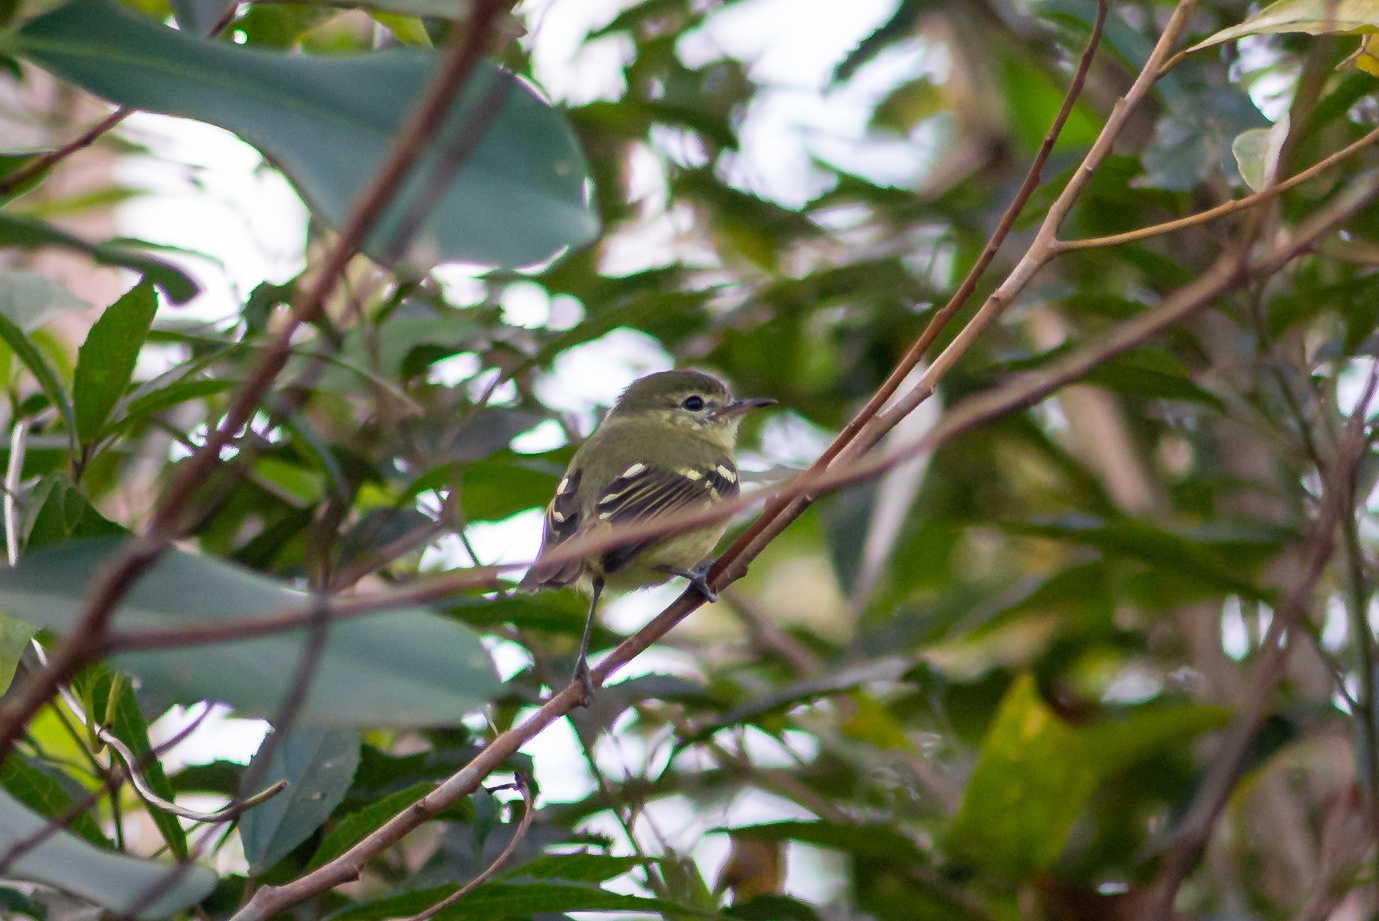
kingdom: Animalia
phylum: Chordata
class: Aves
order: Passeriformes
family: Tyrannidae
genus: Phylloscartes
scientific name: Phylloscartes kronei
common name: Restinga tyrannulet
